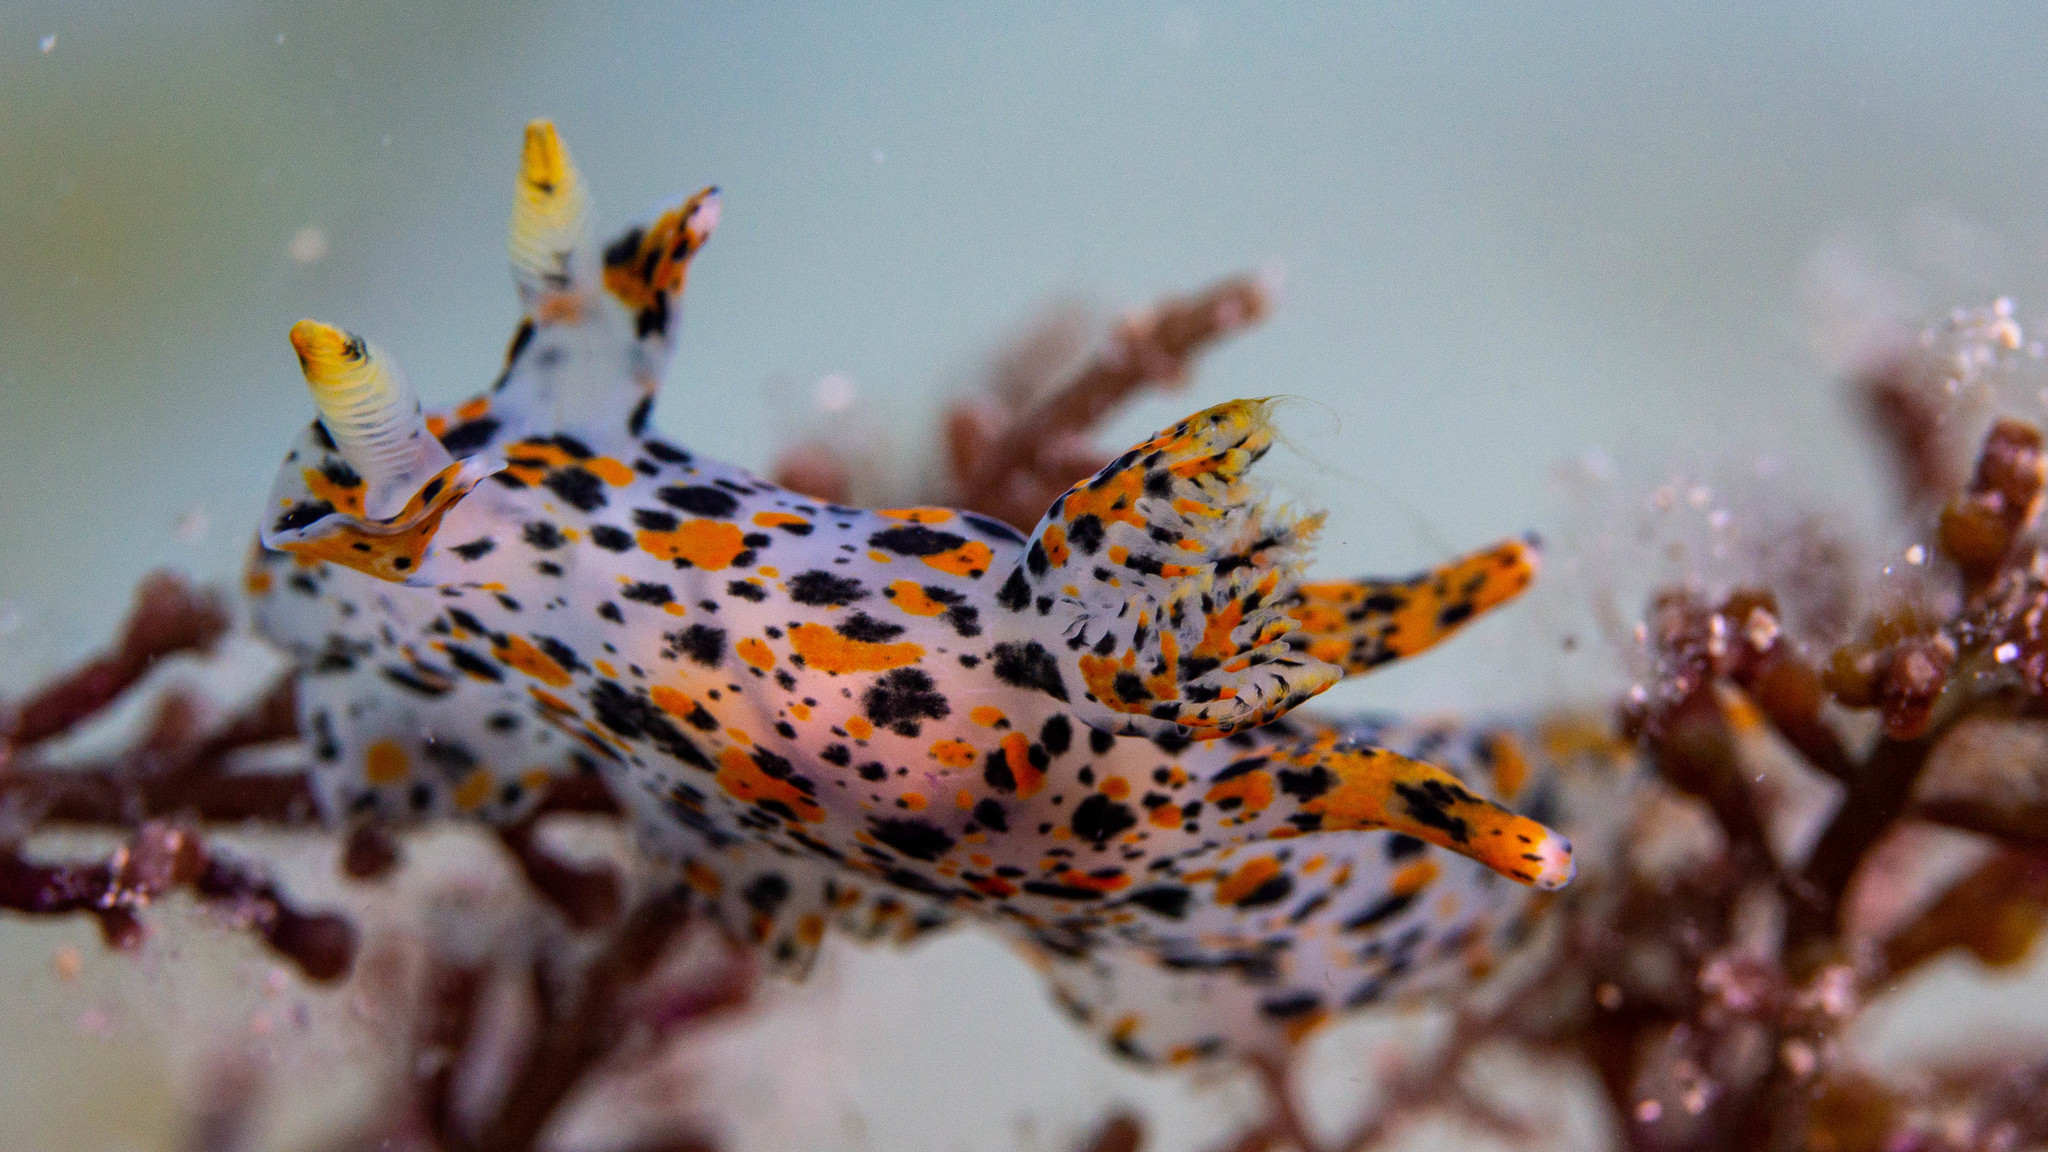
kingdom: Animalia
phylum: Mollusca
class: Gastropoda
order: Nudibranchia
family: Polyceridae
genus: Thecacera
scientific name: Thecacera pennigera
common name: Thecacera
